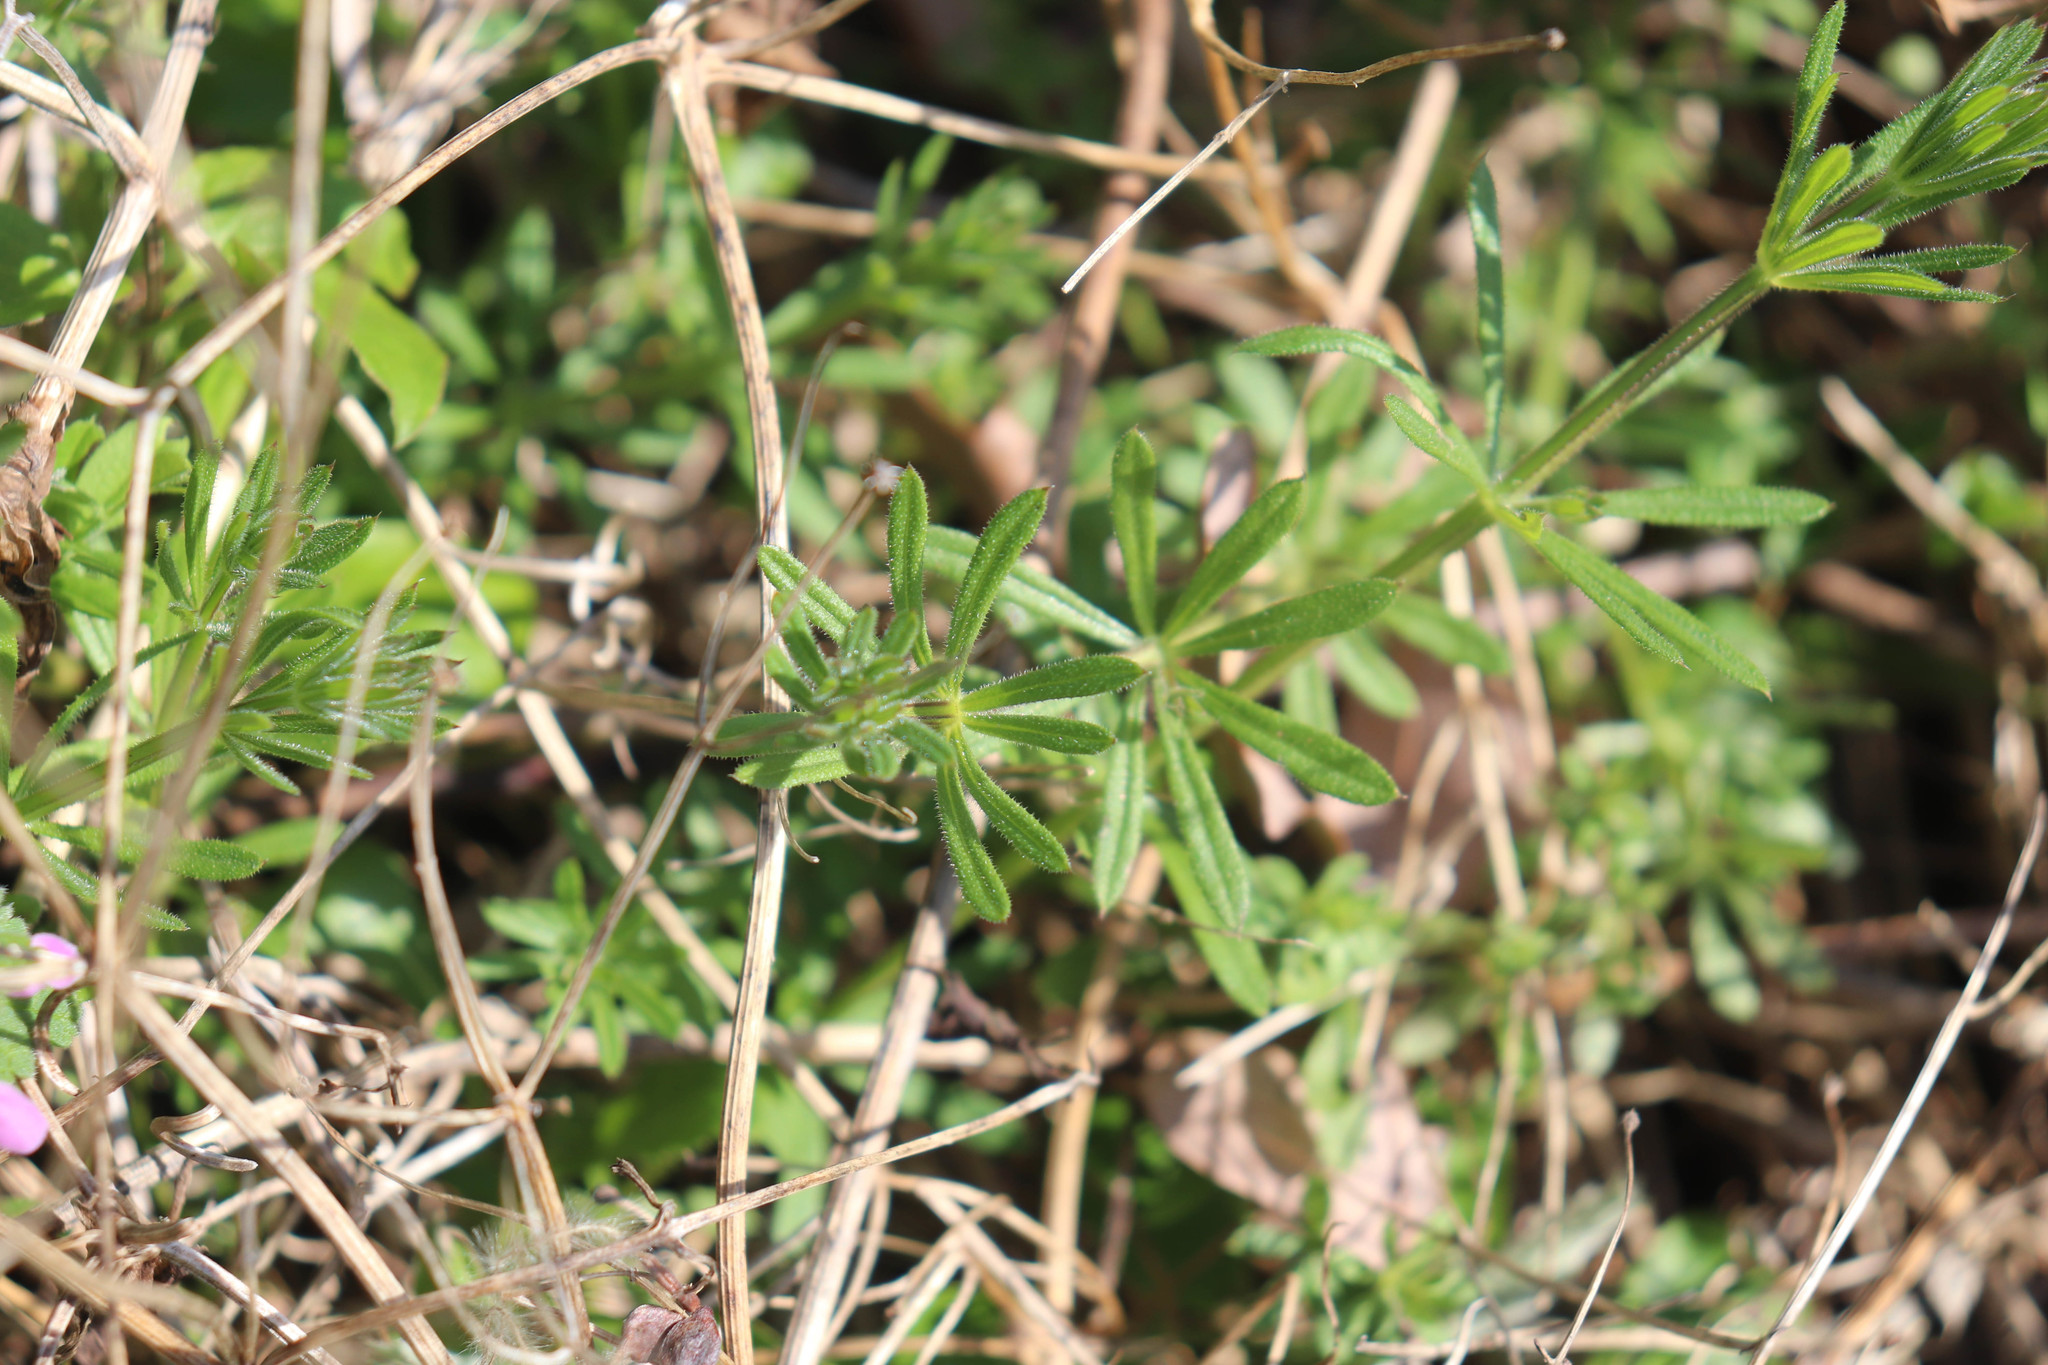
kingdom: Plantae
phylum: Tracheophyta
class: Magnoliopsida
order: Gentianales
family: Rubiaceae
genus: Galium
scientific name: Galium aparine
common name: Cleavers
